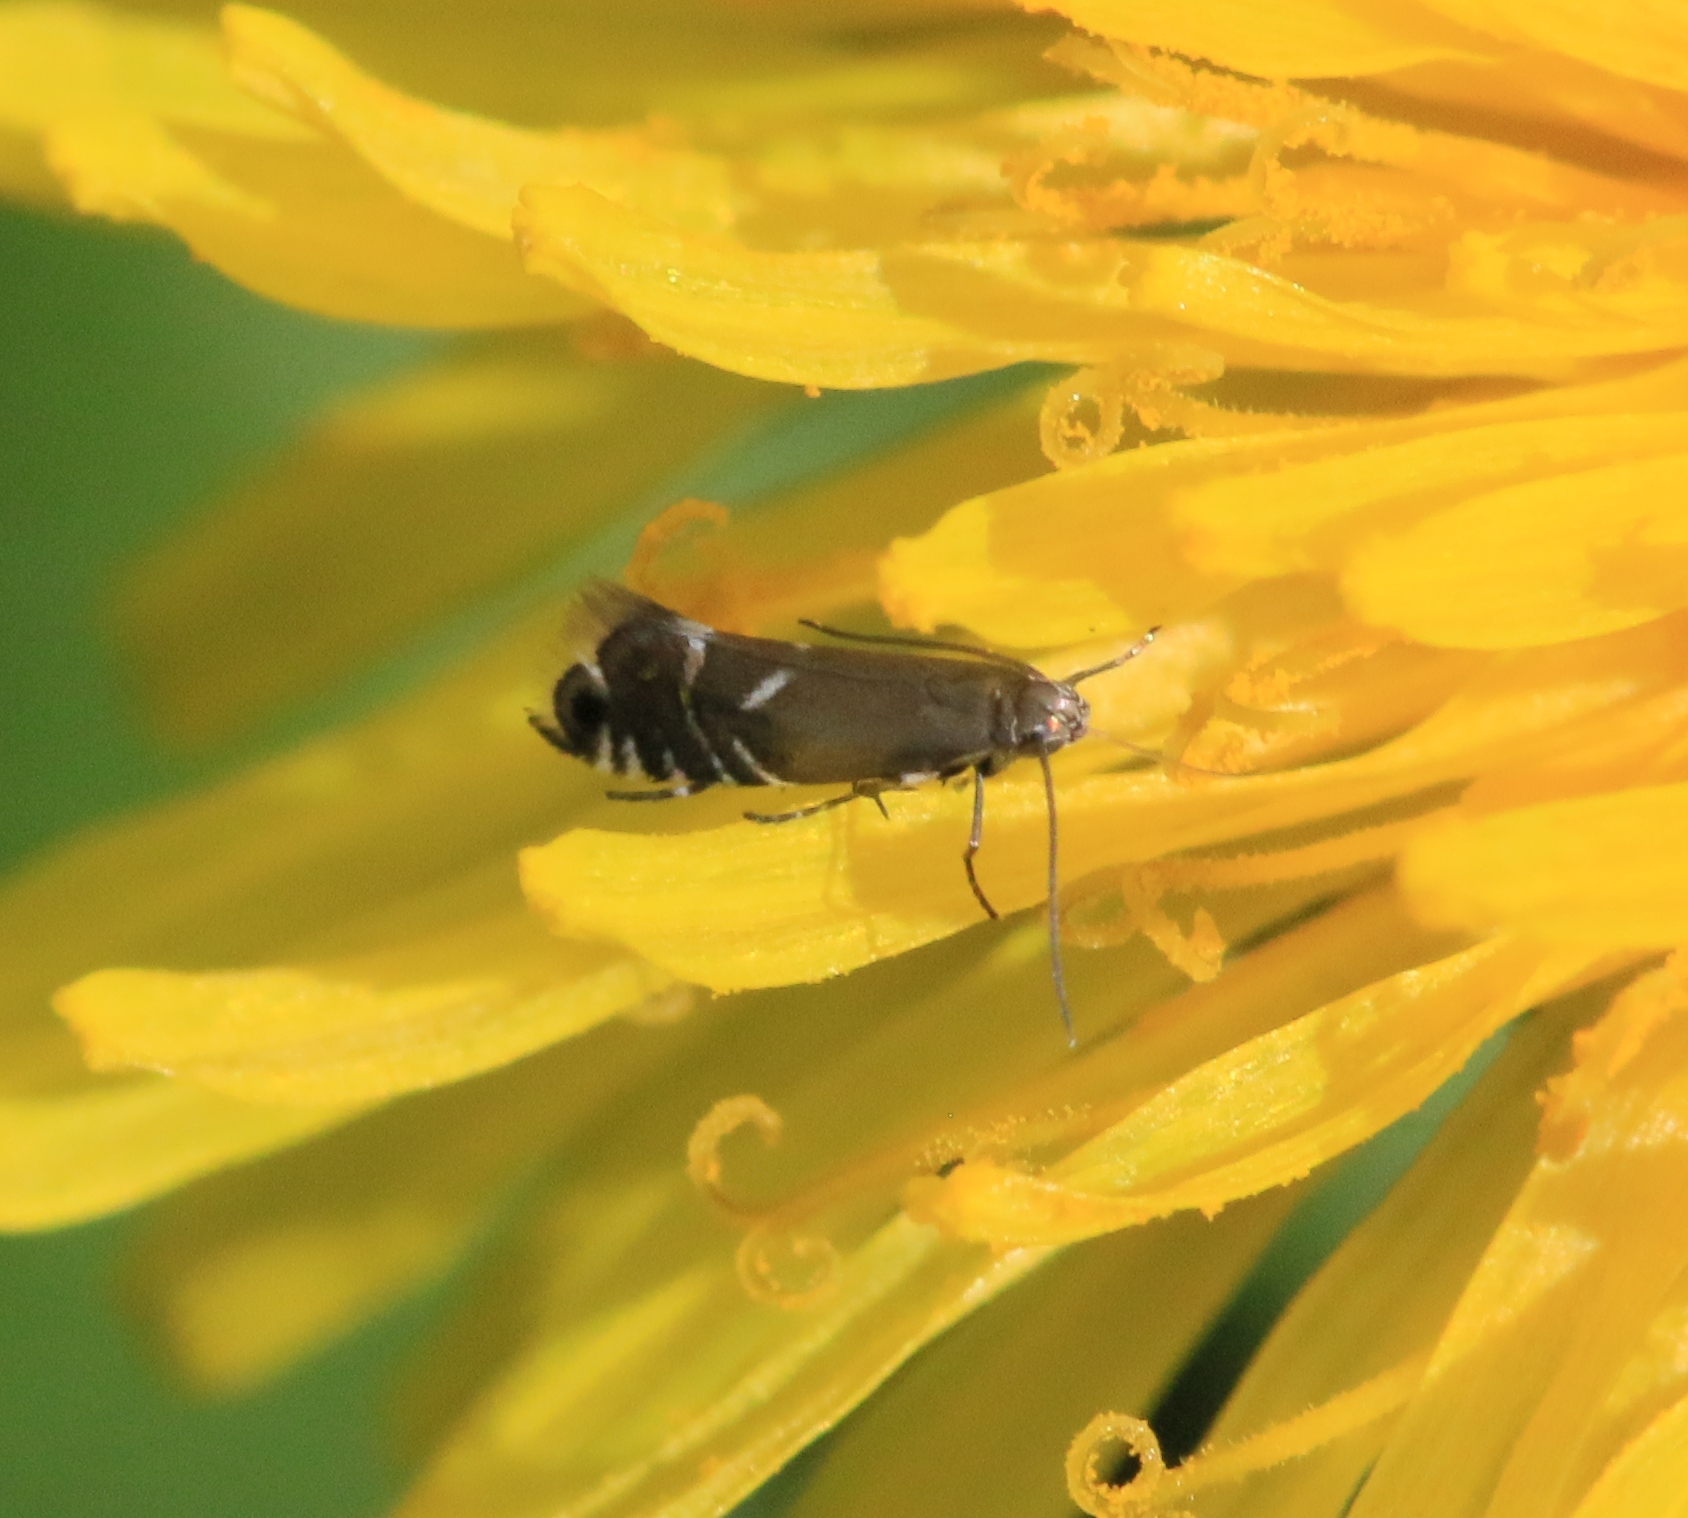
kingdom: Animalia
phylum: Arthropoda
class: Insecta
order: Lepidoptera
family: Glyphipterigidae
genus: Glyphipterix
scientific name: Glyphipterix simpliciella
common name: Cocksfoot moth
